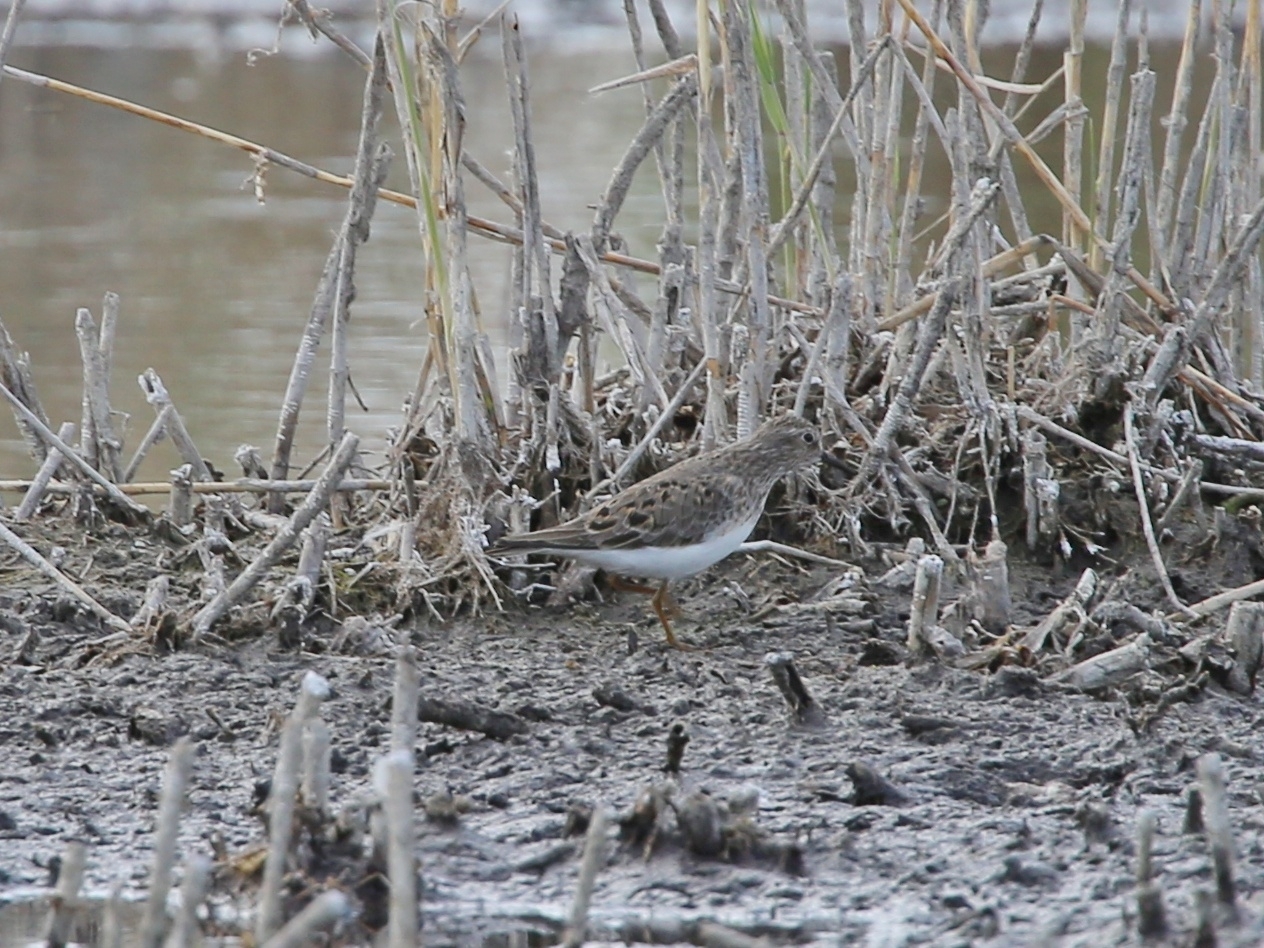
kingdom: Animalia
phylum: Chordata
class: Aves
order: Charadriiformes
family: Scolopacidae
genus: Calidris
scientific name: Calidris temminckii
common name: Temminck's stint
